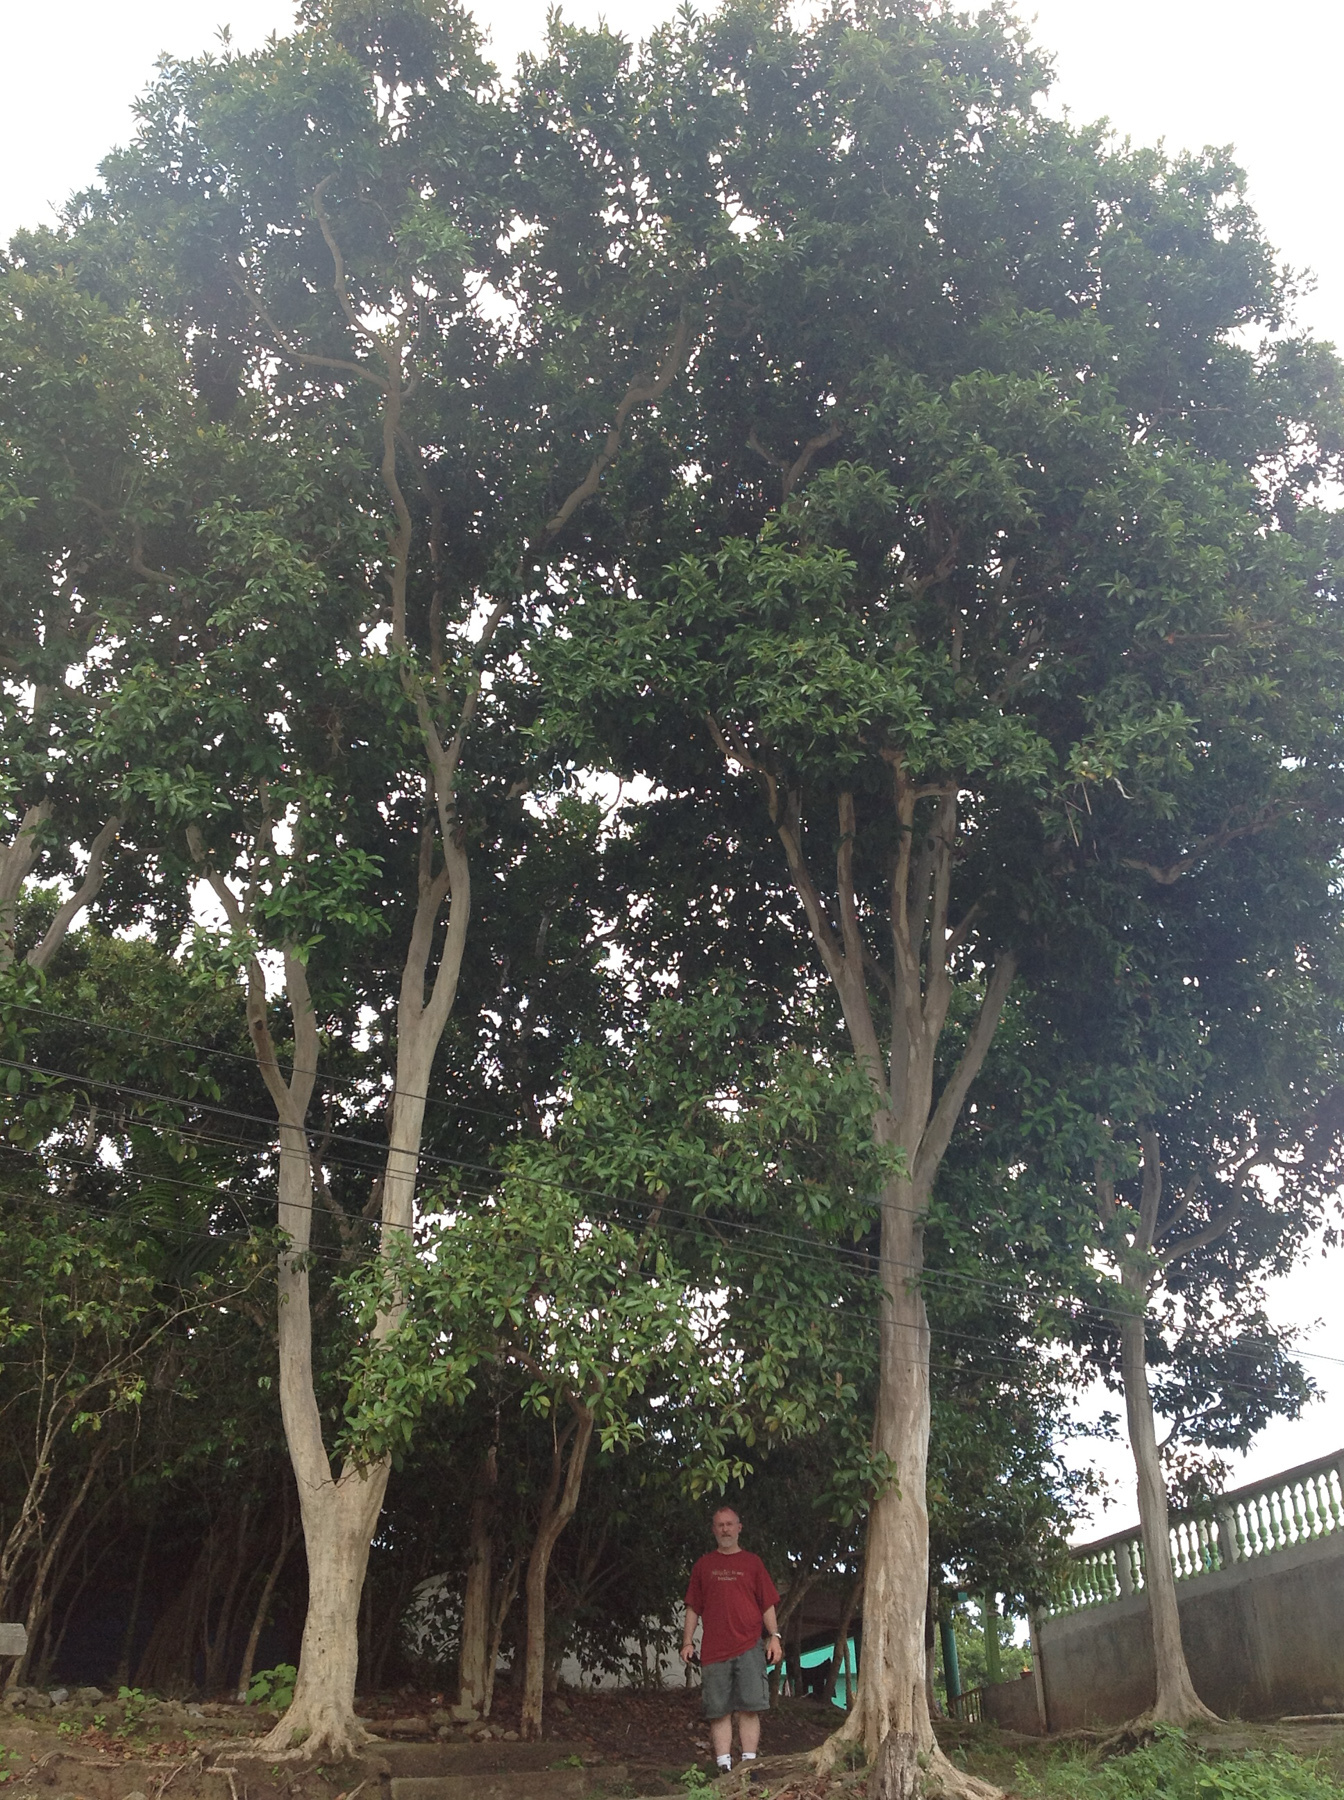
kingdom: Plantae
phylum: Tracheophyta
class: Magnoliopsida
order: Myrtales
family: Myrtaceae
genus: Pimenta
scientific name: Pimenta dioica
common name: Allspice
